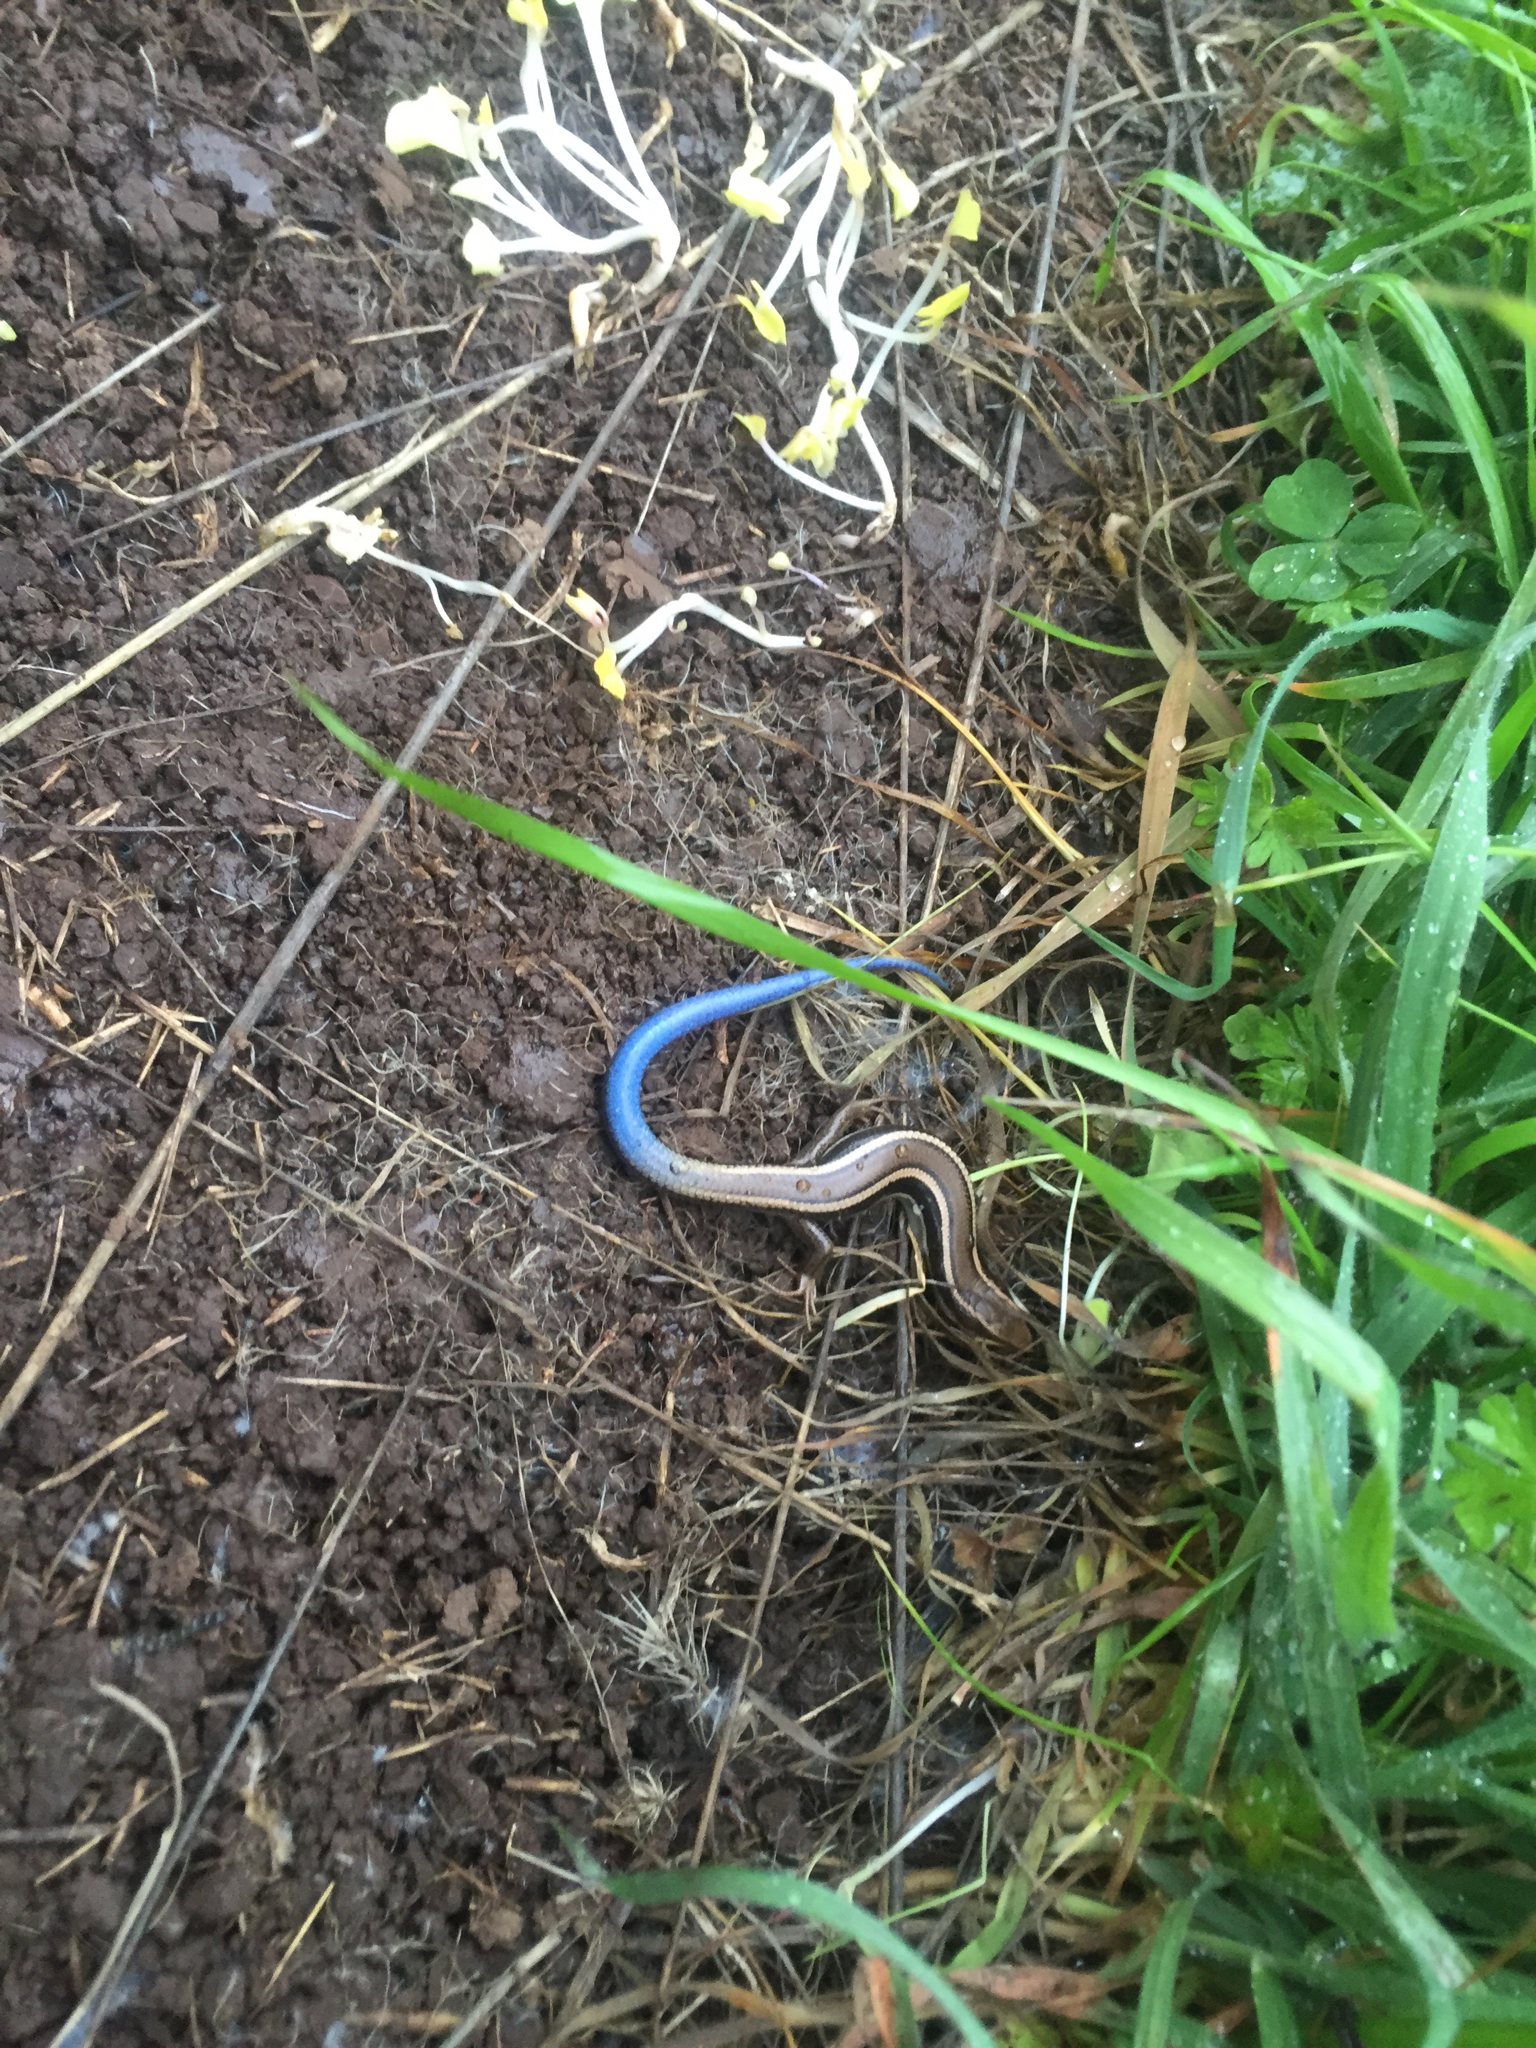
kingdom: Animalia
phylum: Chordata
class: Squamata
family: Scincidae
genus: Plestiodon
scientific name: Plestiodon skiltonianus
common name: Coronado island skink [interparietalis]
